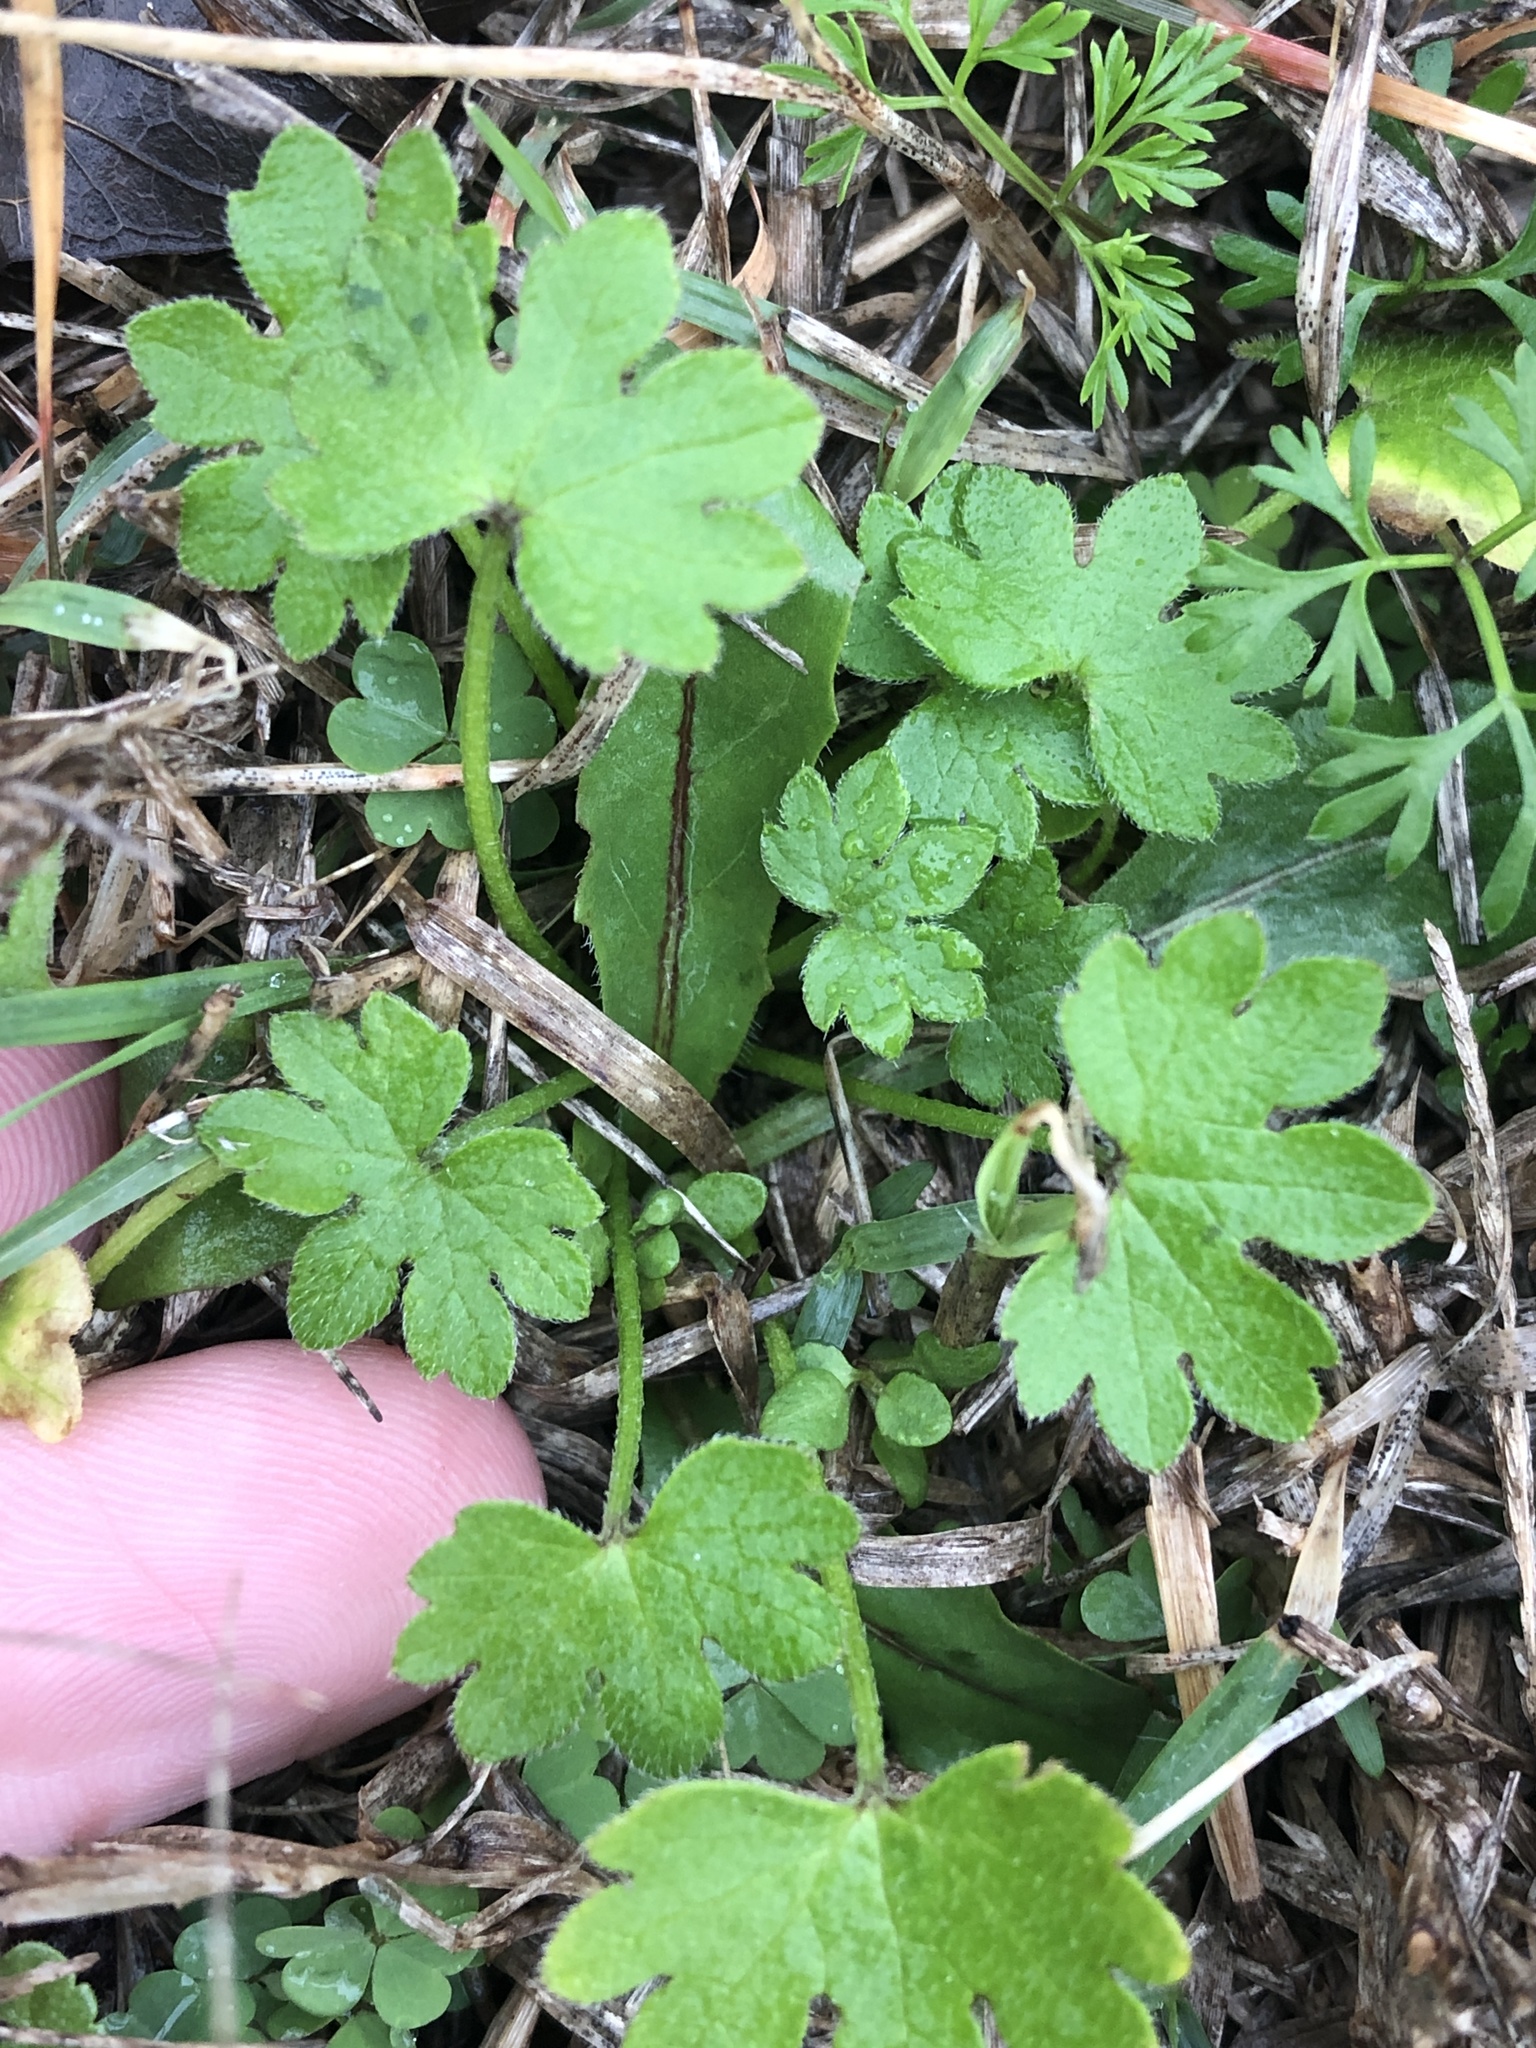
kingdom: Plantae
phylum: Tracheophyta
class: Magnoliopsida
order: Apiales
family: Apiaceae
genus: Bowlesia
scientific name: Bowlesia incana
